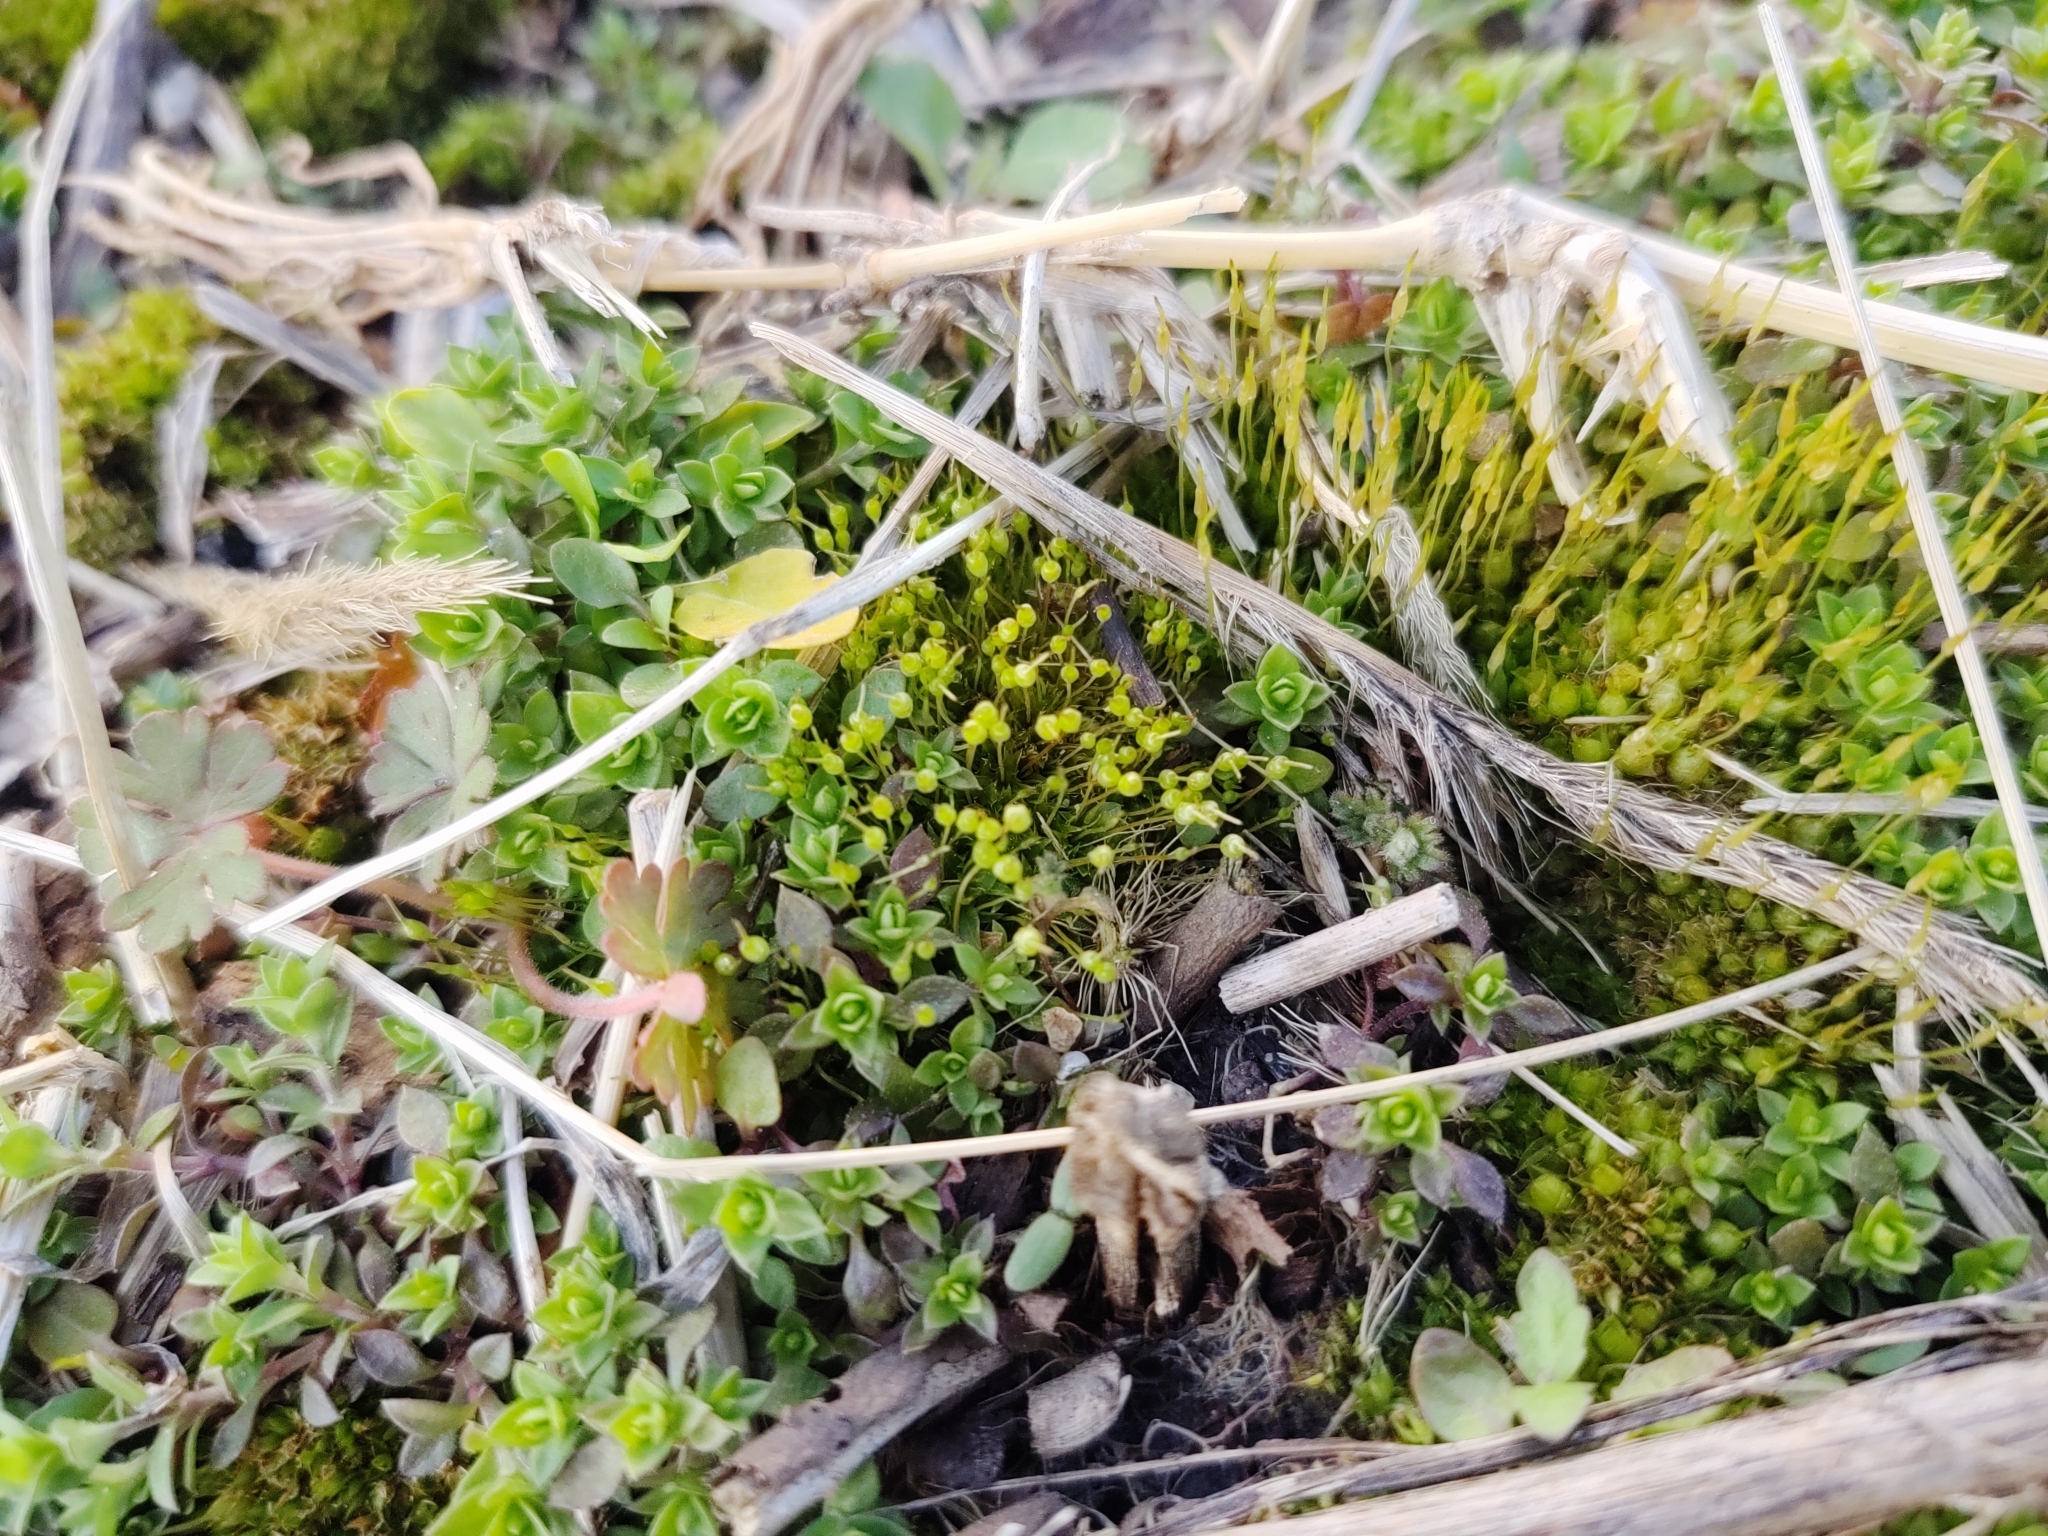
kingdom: Plantae
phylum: Bryophyta
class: Bryopsida
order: Funariales
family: Funariaceae
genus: Physcomitrium
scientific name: Physcomitrium pyriforme
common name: Common bladder-moss
